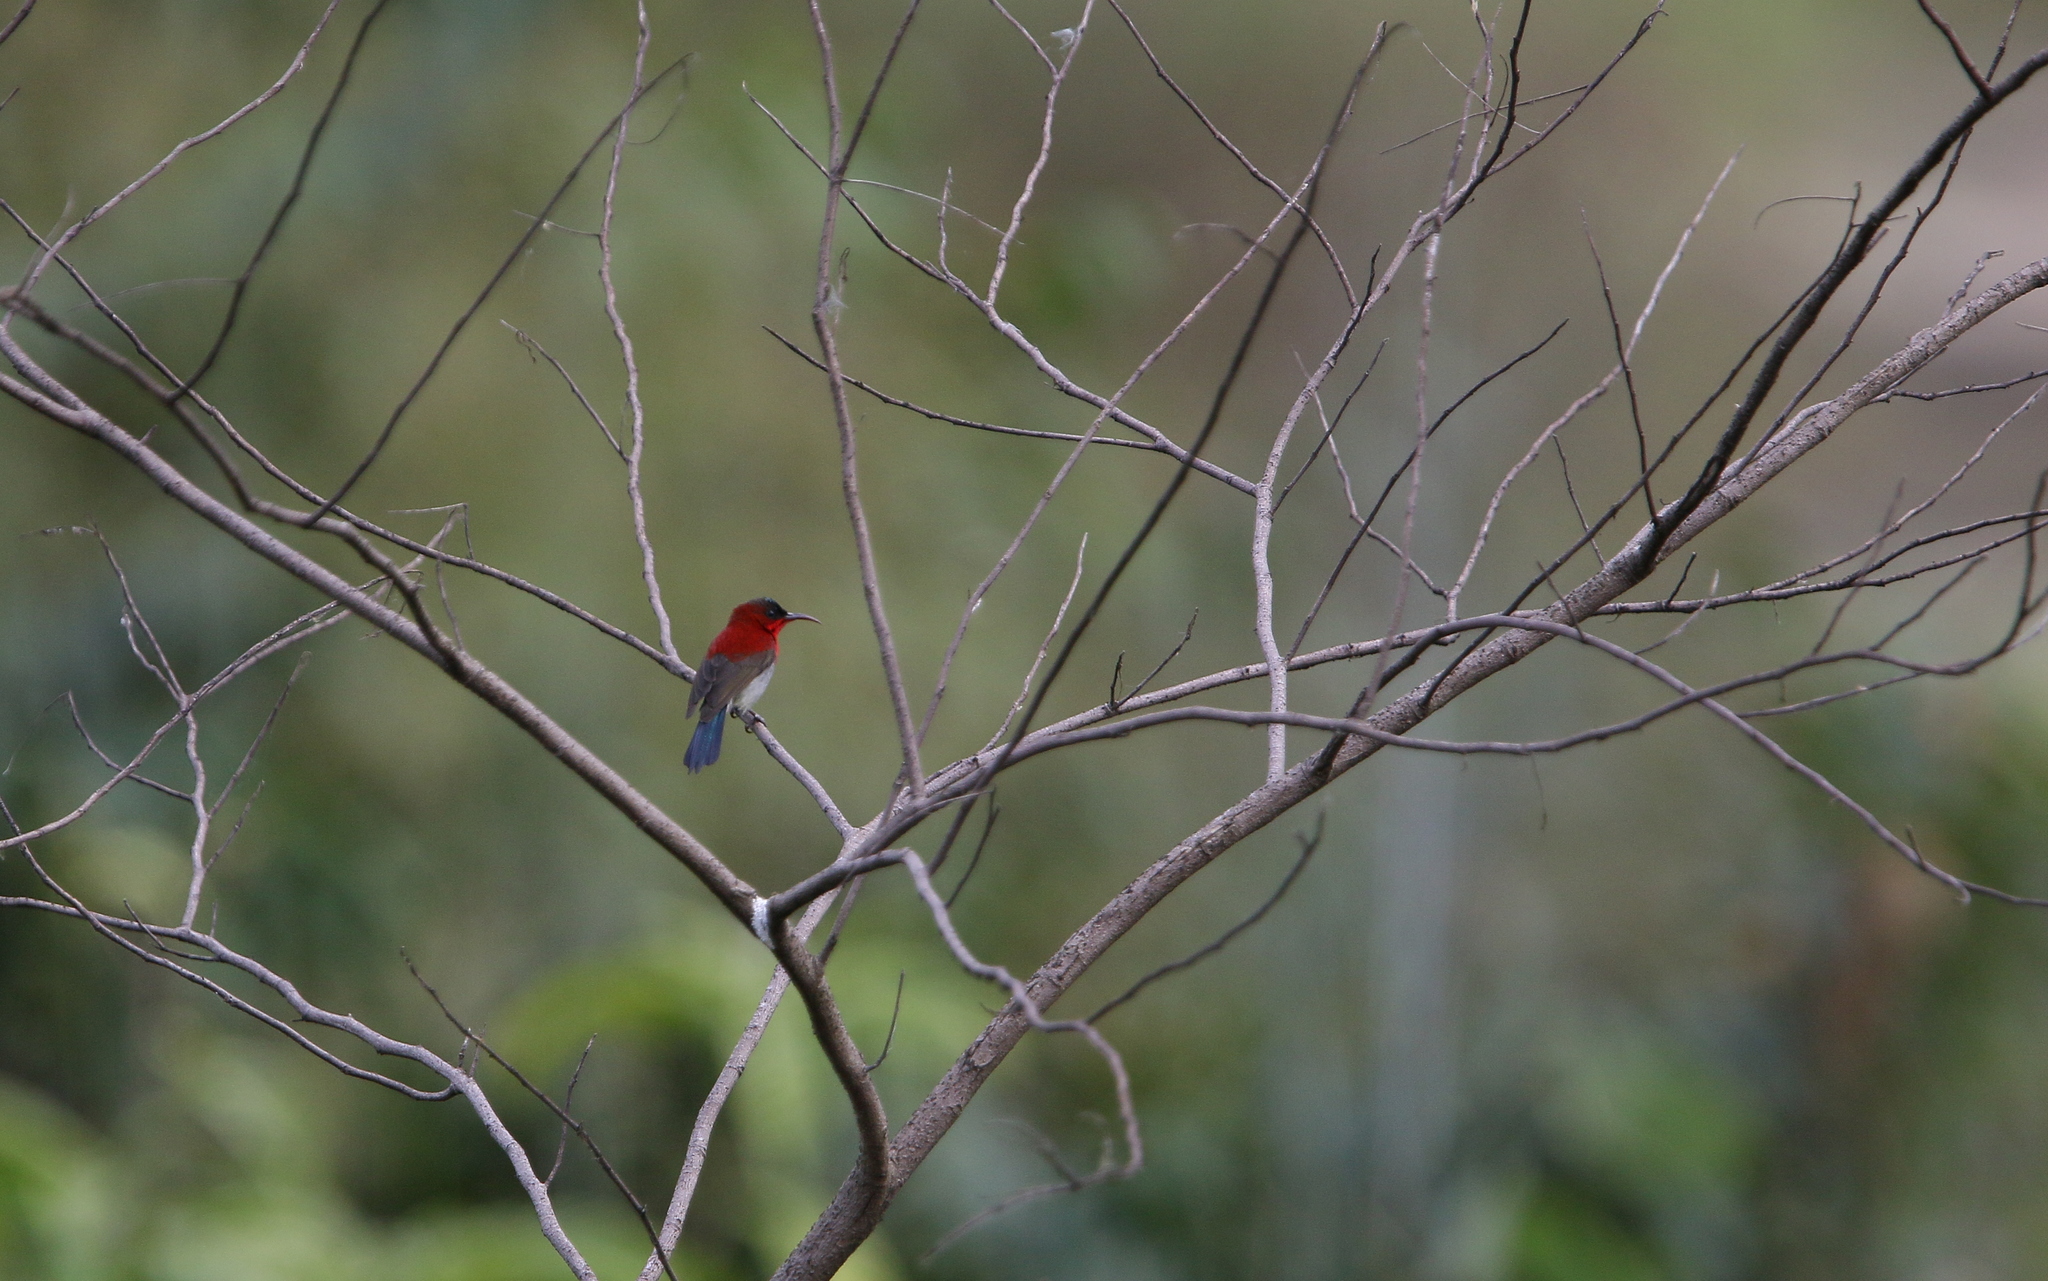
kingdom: Animalia
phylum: Chordata
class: Aves
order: Passeriformes
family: Nectariniidae
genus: Aethopyga
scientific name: Aethopyga siparaja
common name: Crimson sunbird
